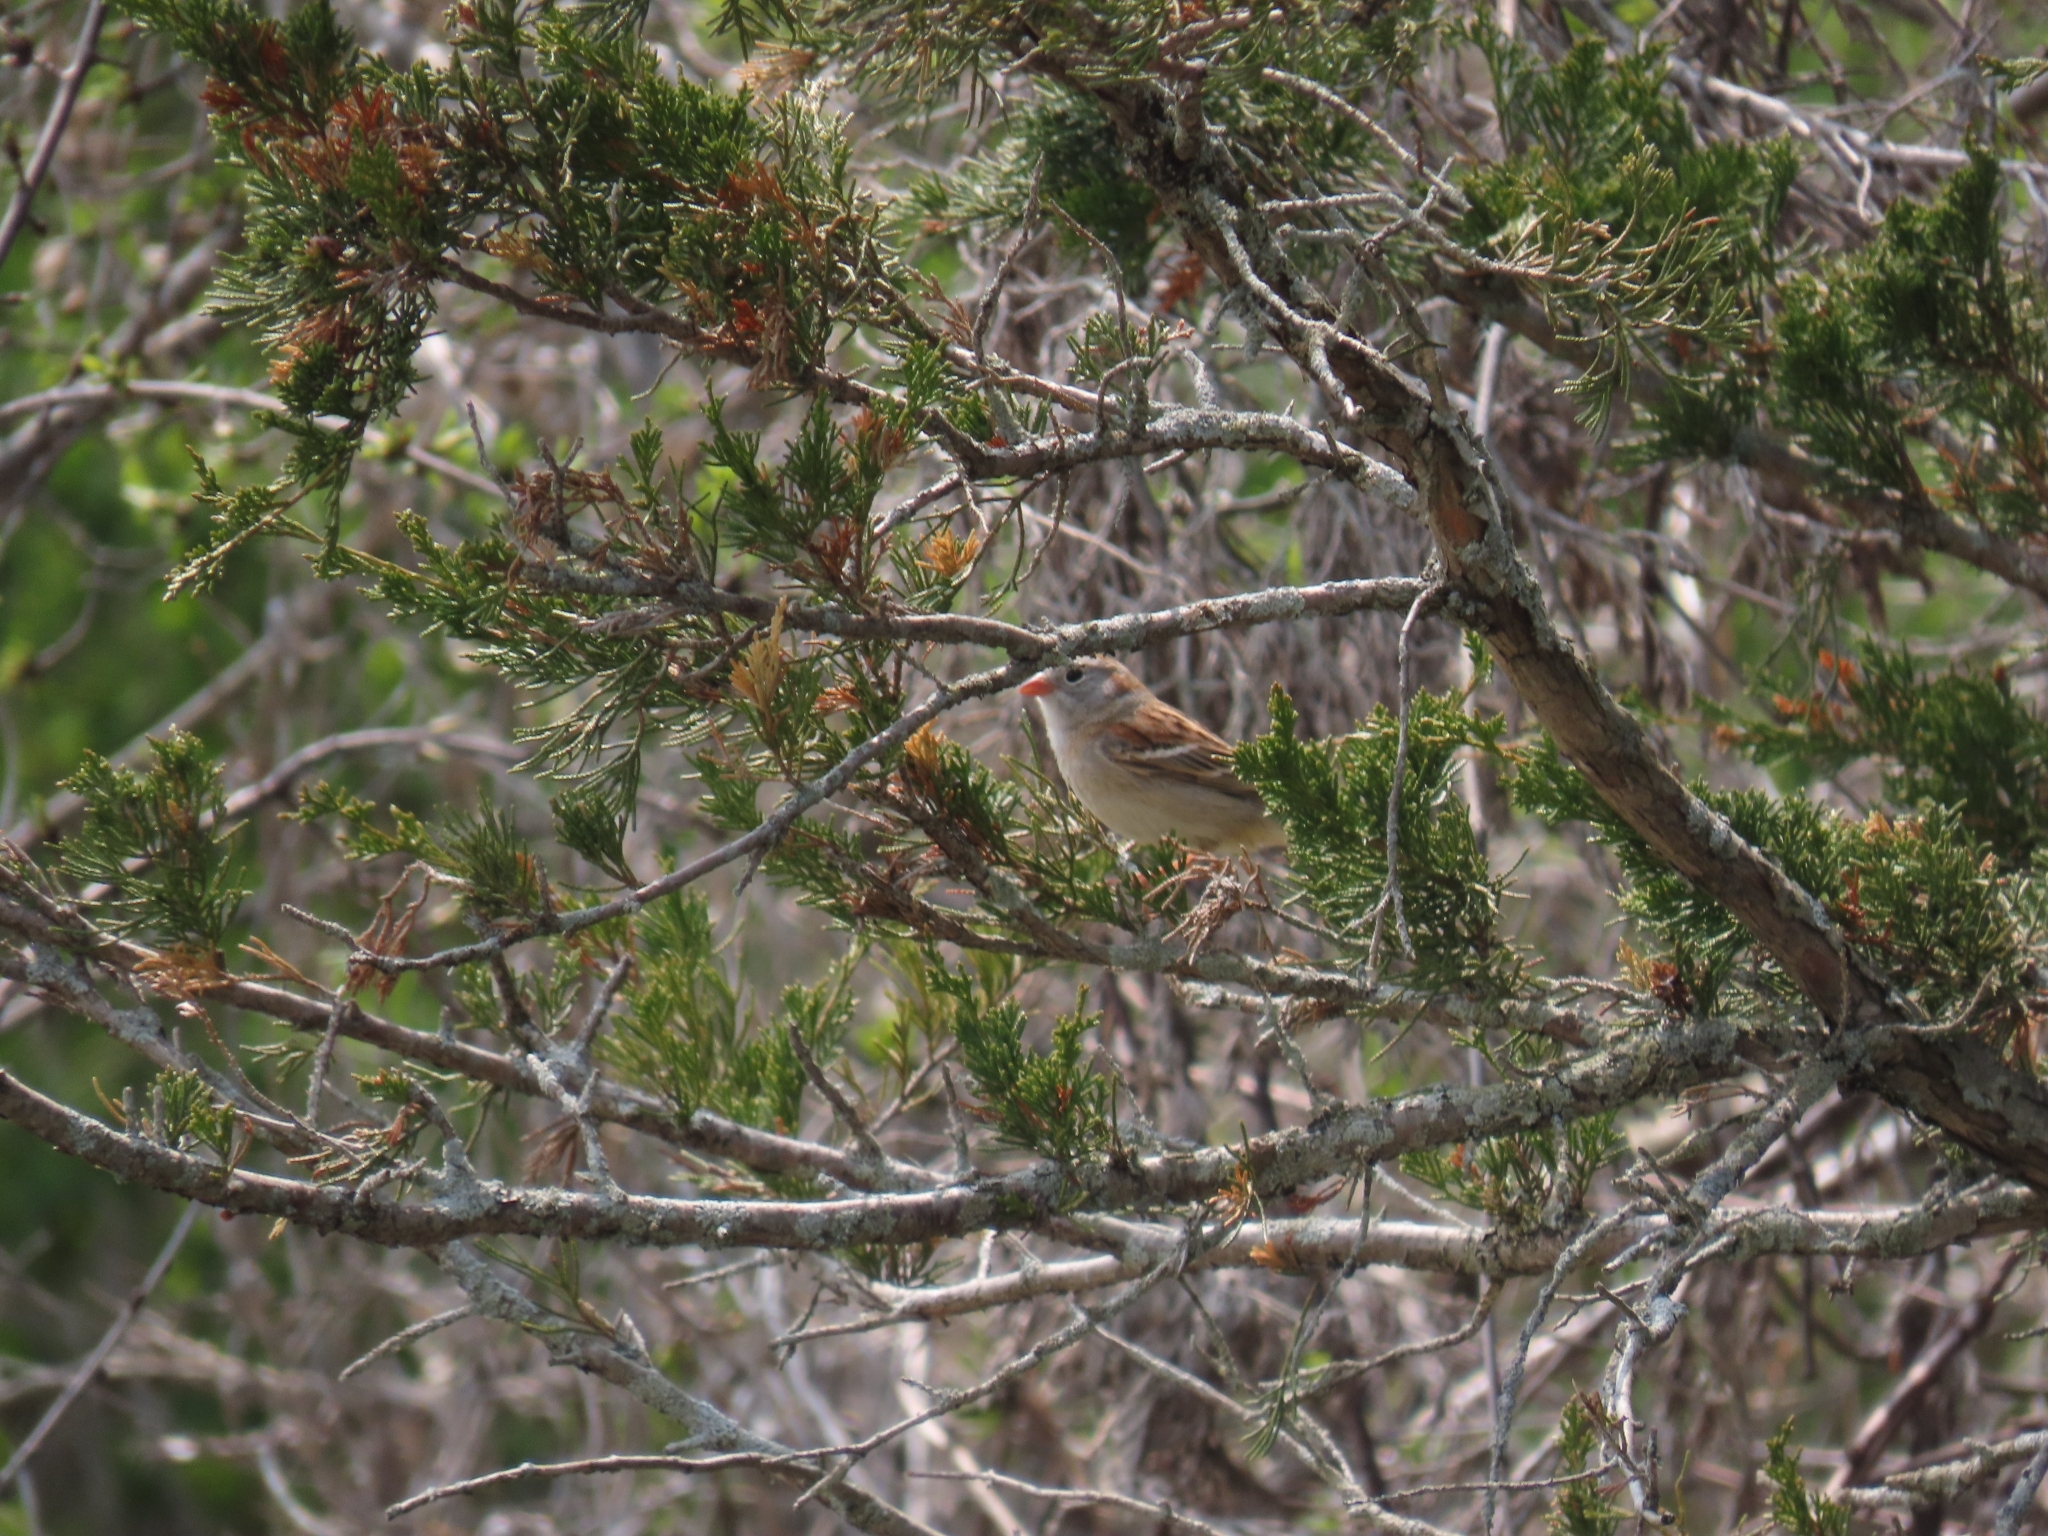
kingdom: Animalia
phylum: Chordata
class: Aves
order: Passeriformes
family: Passerellidae
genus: Spizella
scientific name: Spizella pusilla
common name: Field sparrow
